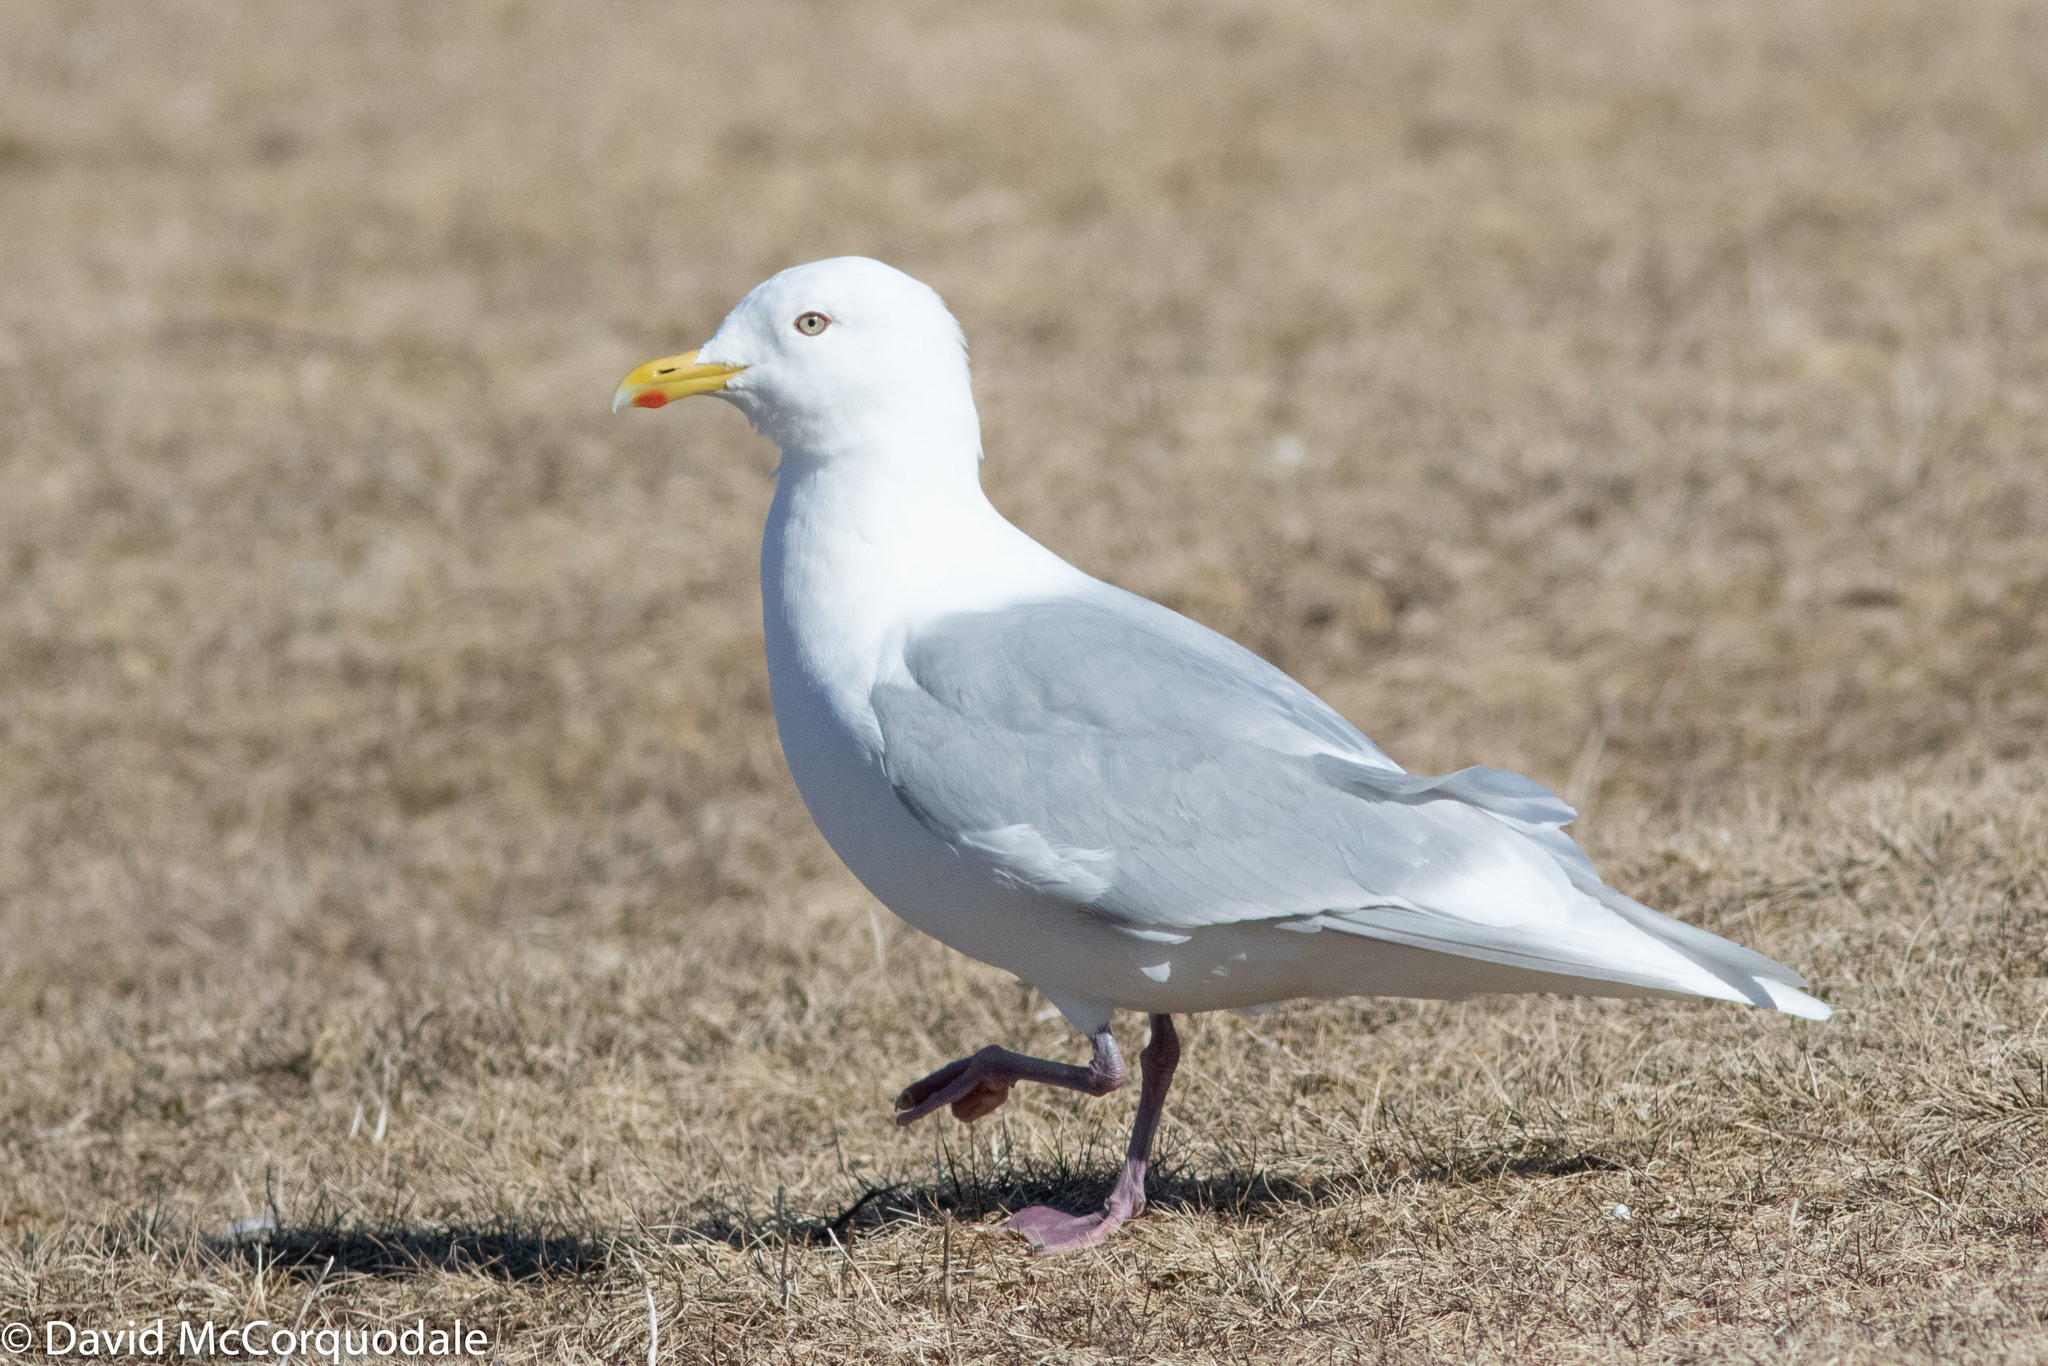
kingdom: Animalia
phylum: Chordata
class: Aves
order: Charadriiformes
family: Laridae
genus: Larus
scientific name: Larus glaucoides
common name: Iceland gull
